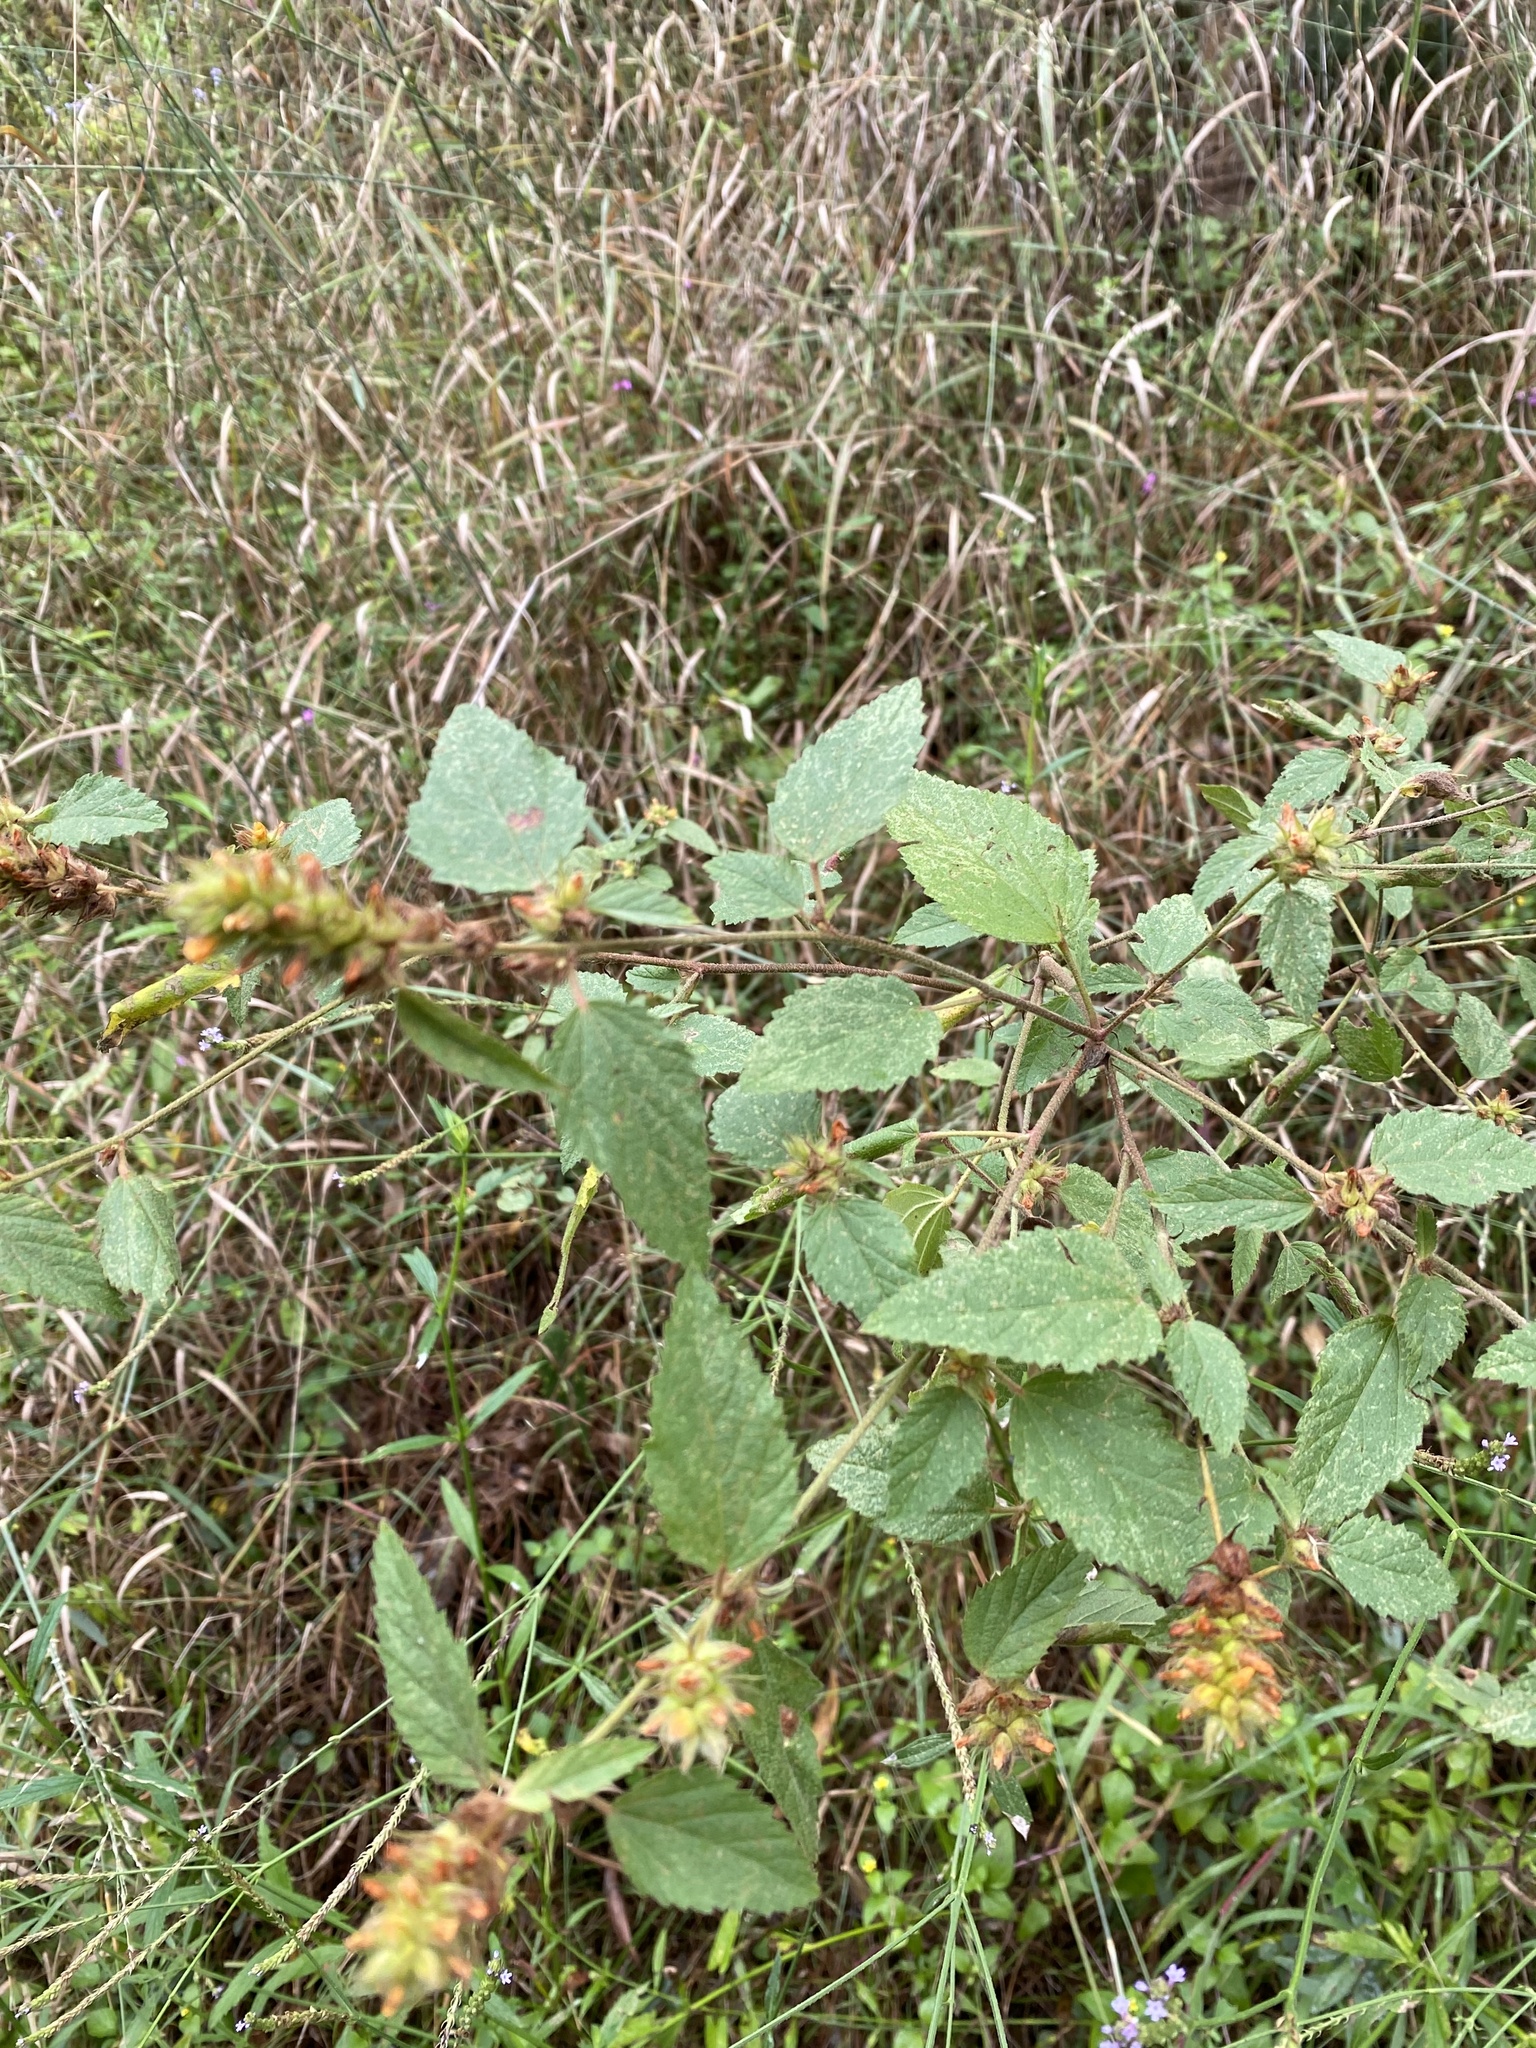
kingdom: Plantae
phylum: Tracheophyta
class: Magnoliopsida
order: Malvales
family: Malvaceae
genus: Malvastrum
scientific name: Malvastrum americanum
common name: Spiked malvastrum
